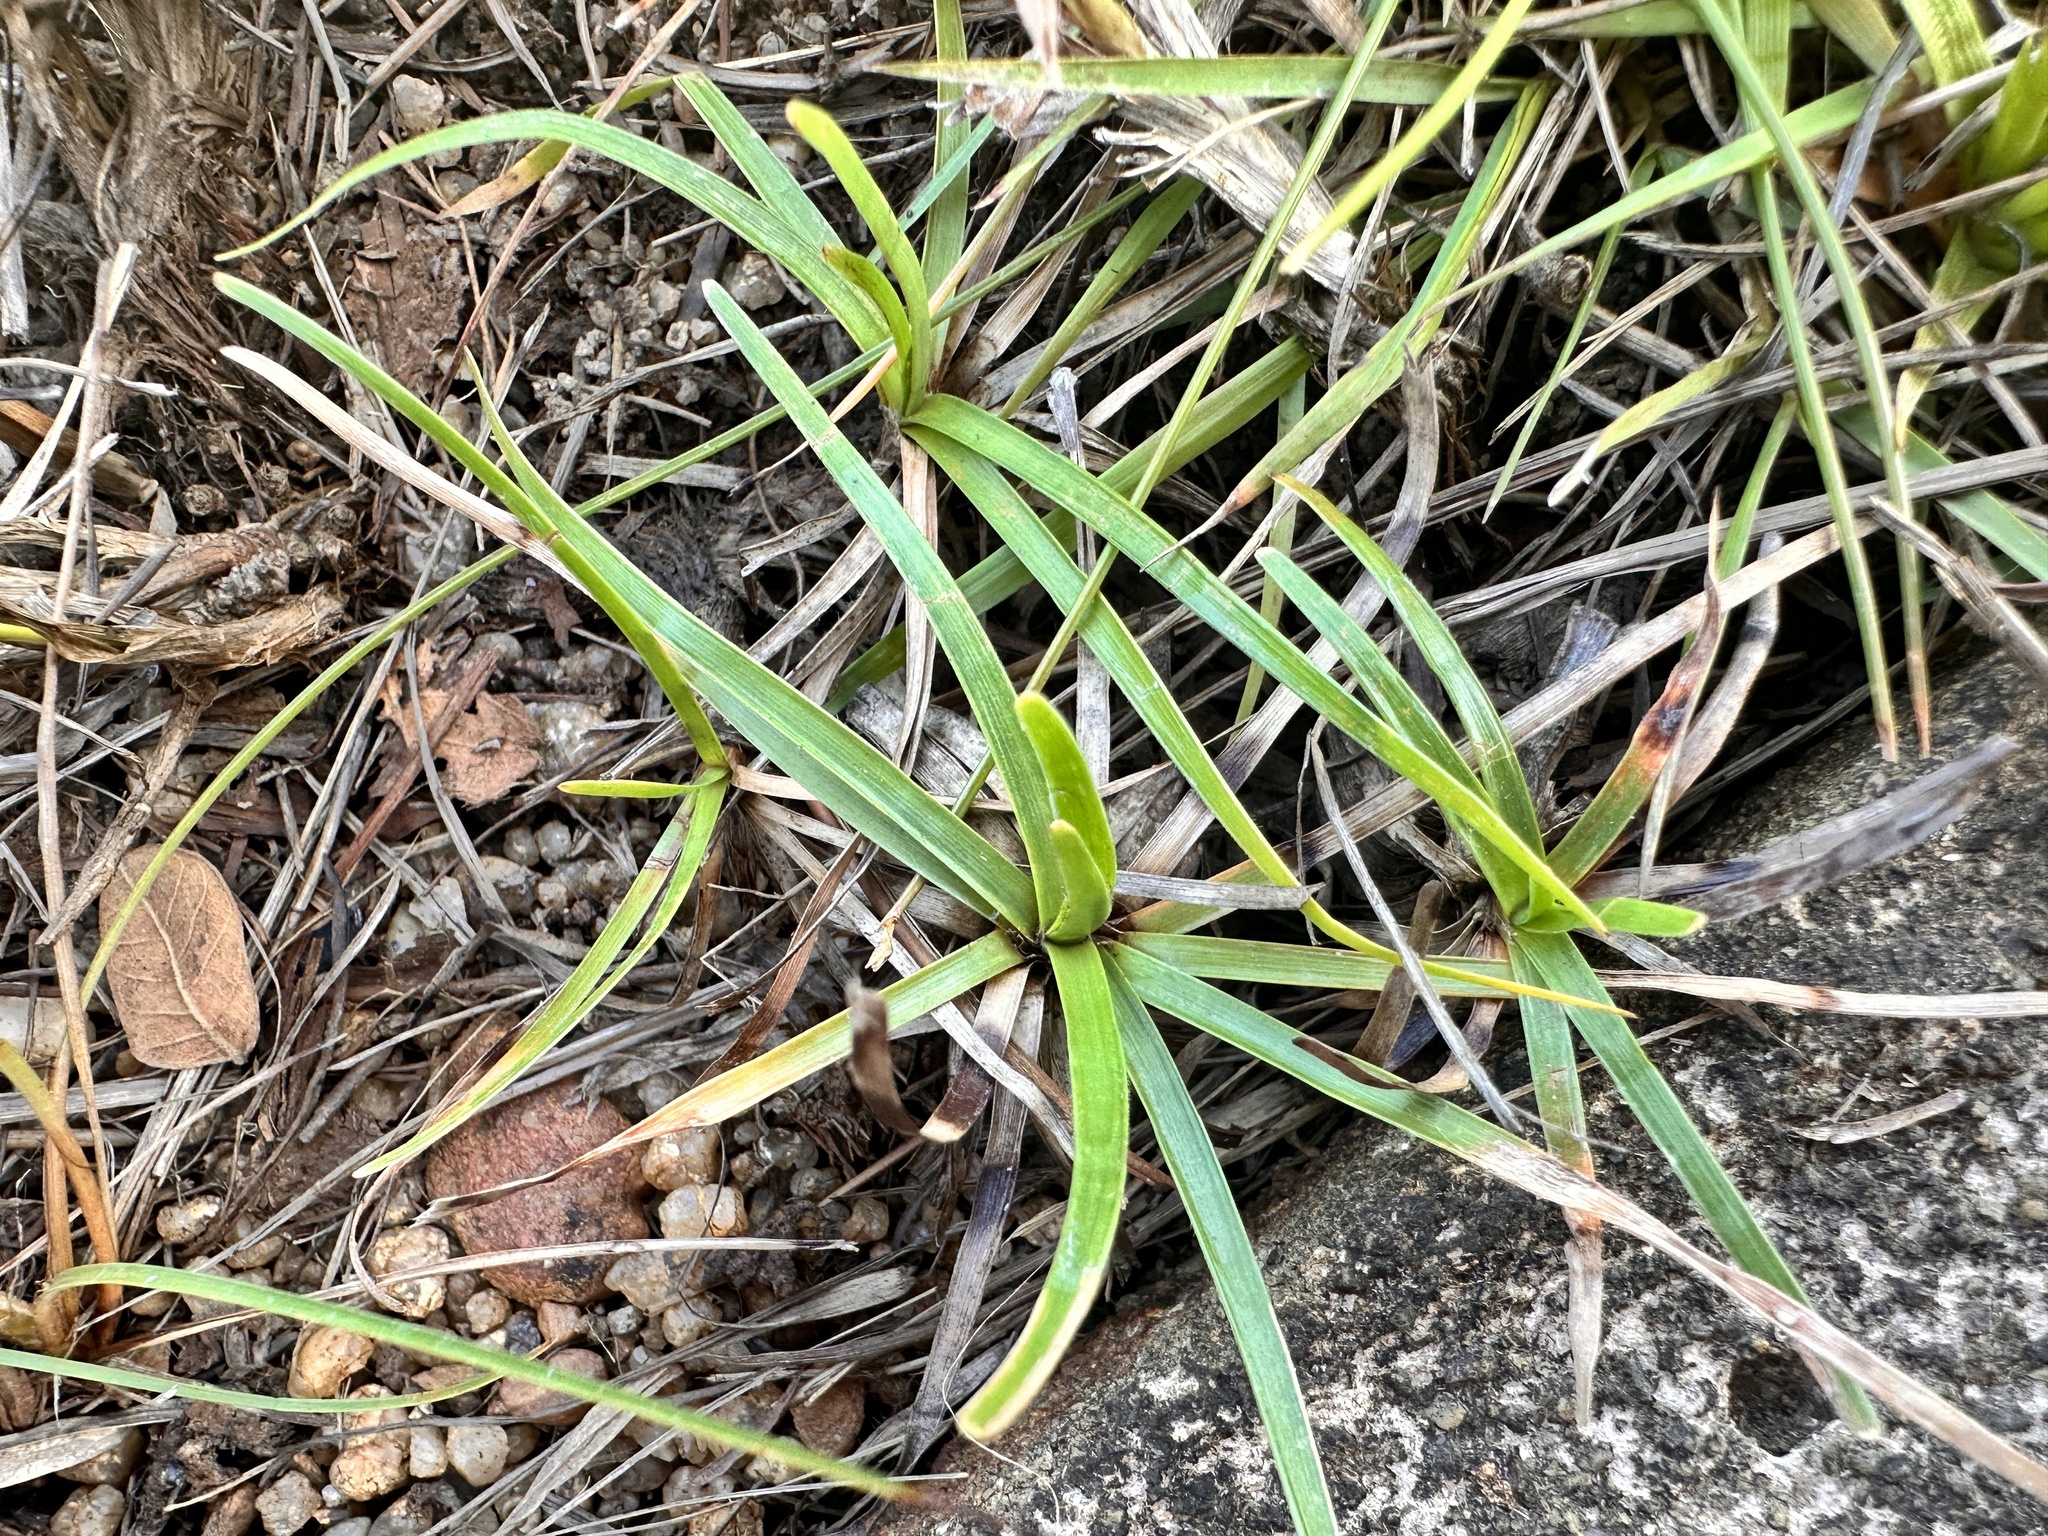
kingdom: Plantae
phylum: Tracheophyta
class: Liliopsida
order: Poales
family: Eriocaulaceae
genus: Eriocaulon
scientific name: Eriocaulon truncatum
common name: Short pipe-wort
